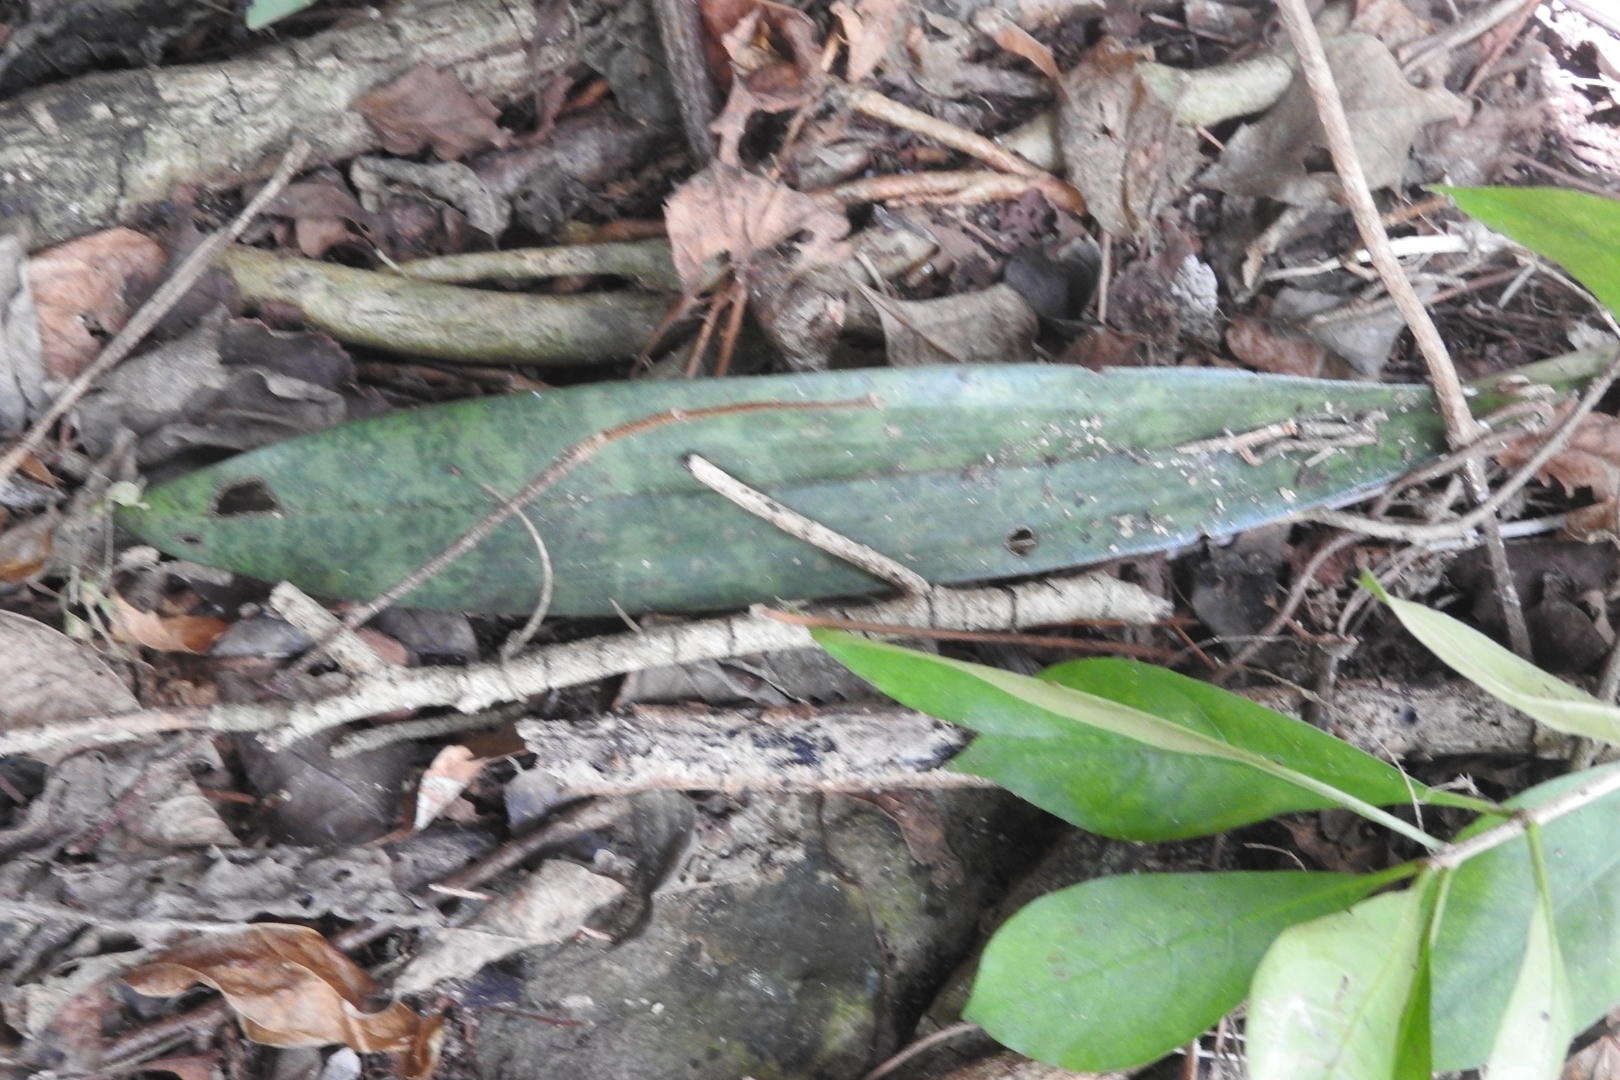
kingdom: Plantae
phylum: Tracheophyta
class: Liliopsida
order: Asparagales
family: Orchidaceae
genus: Eulophia
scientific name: Eulophia maculata
